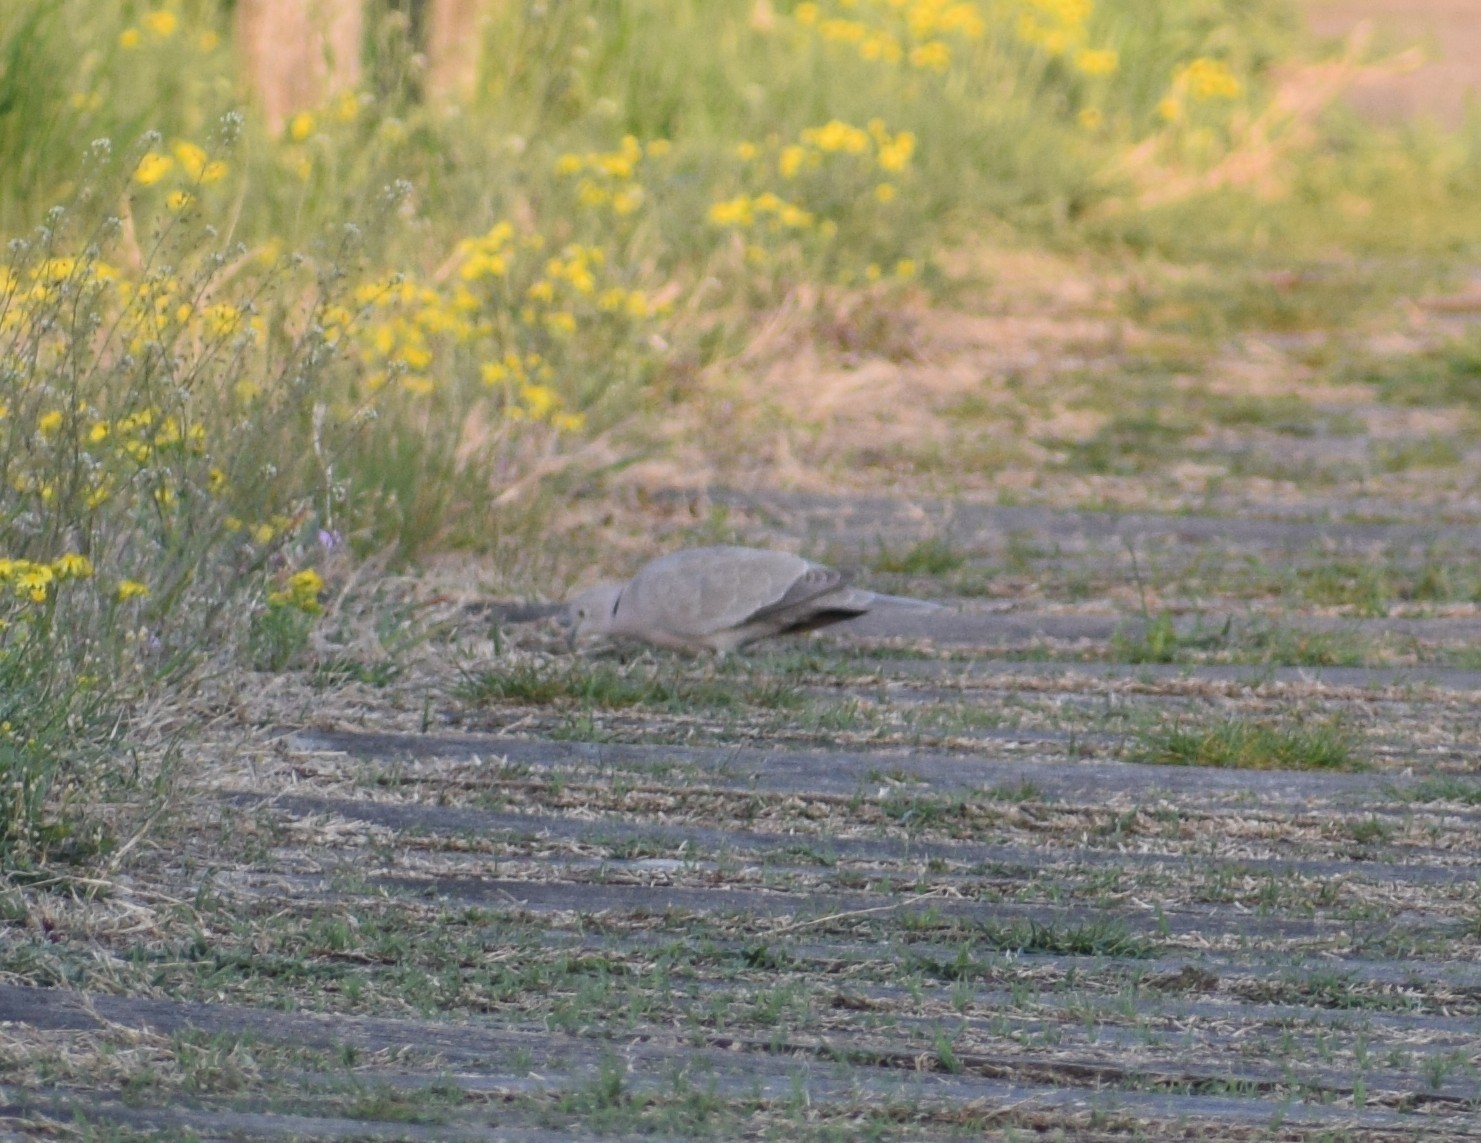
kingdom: Animalia
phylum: Chordata
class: Aves
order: Columbiformes
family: Columbidae
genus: Streptopelia
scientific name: Streptopelia decaocto
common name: Eurasian collared dove
